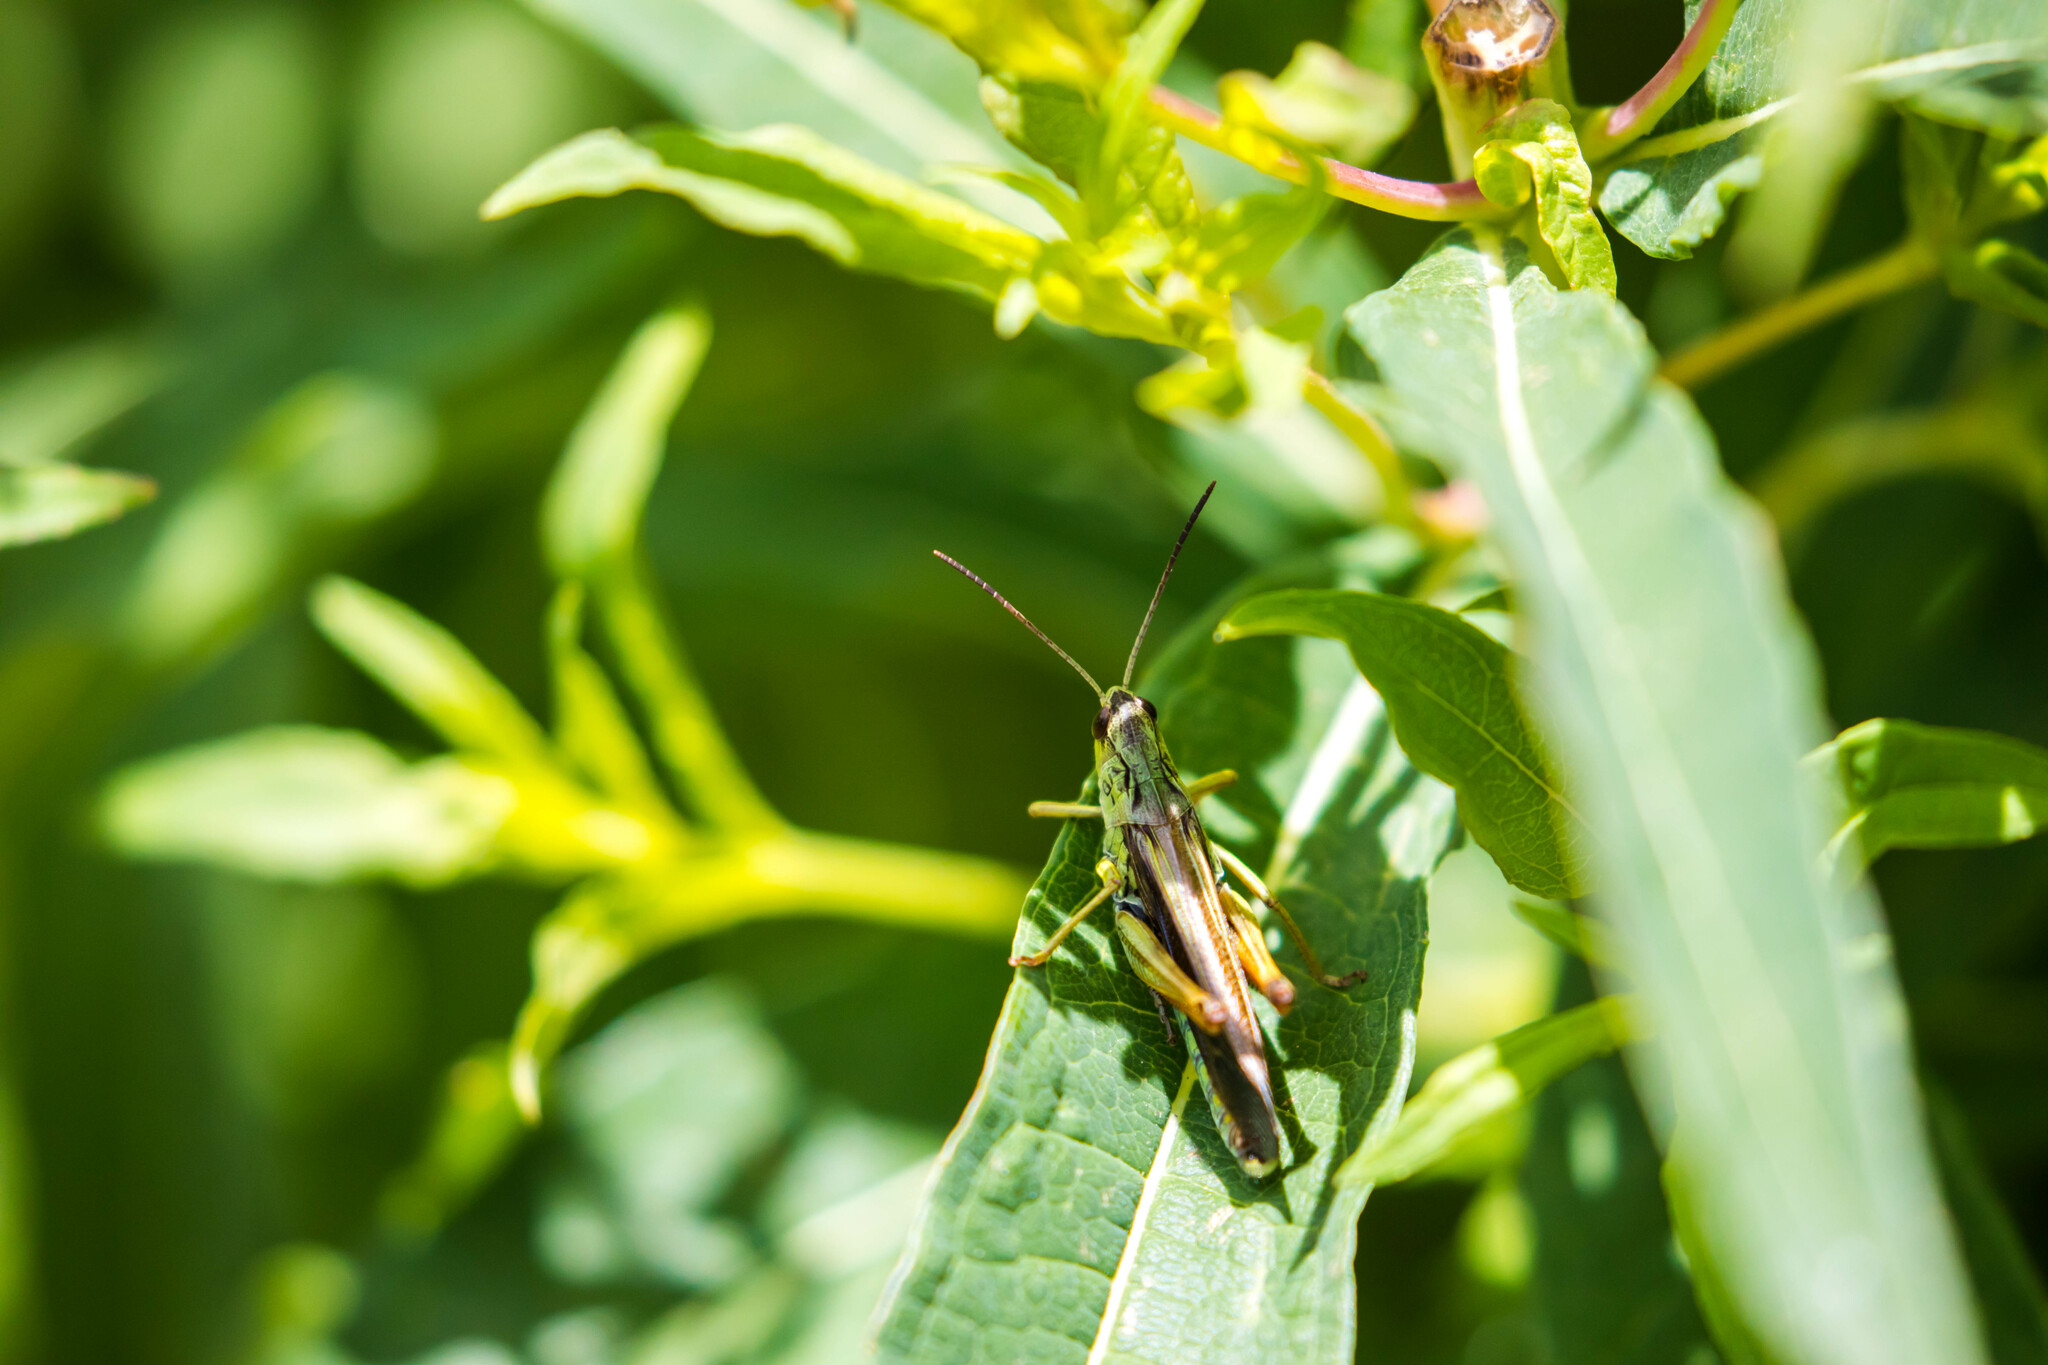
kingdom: Animalia
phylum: Arthropoda
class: Insecta
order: Orthoptera
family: Acrididae
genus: Stauroderus
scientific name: Stauroderus scalaris
